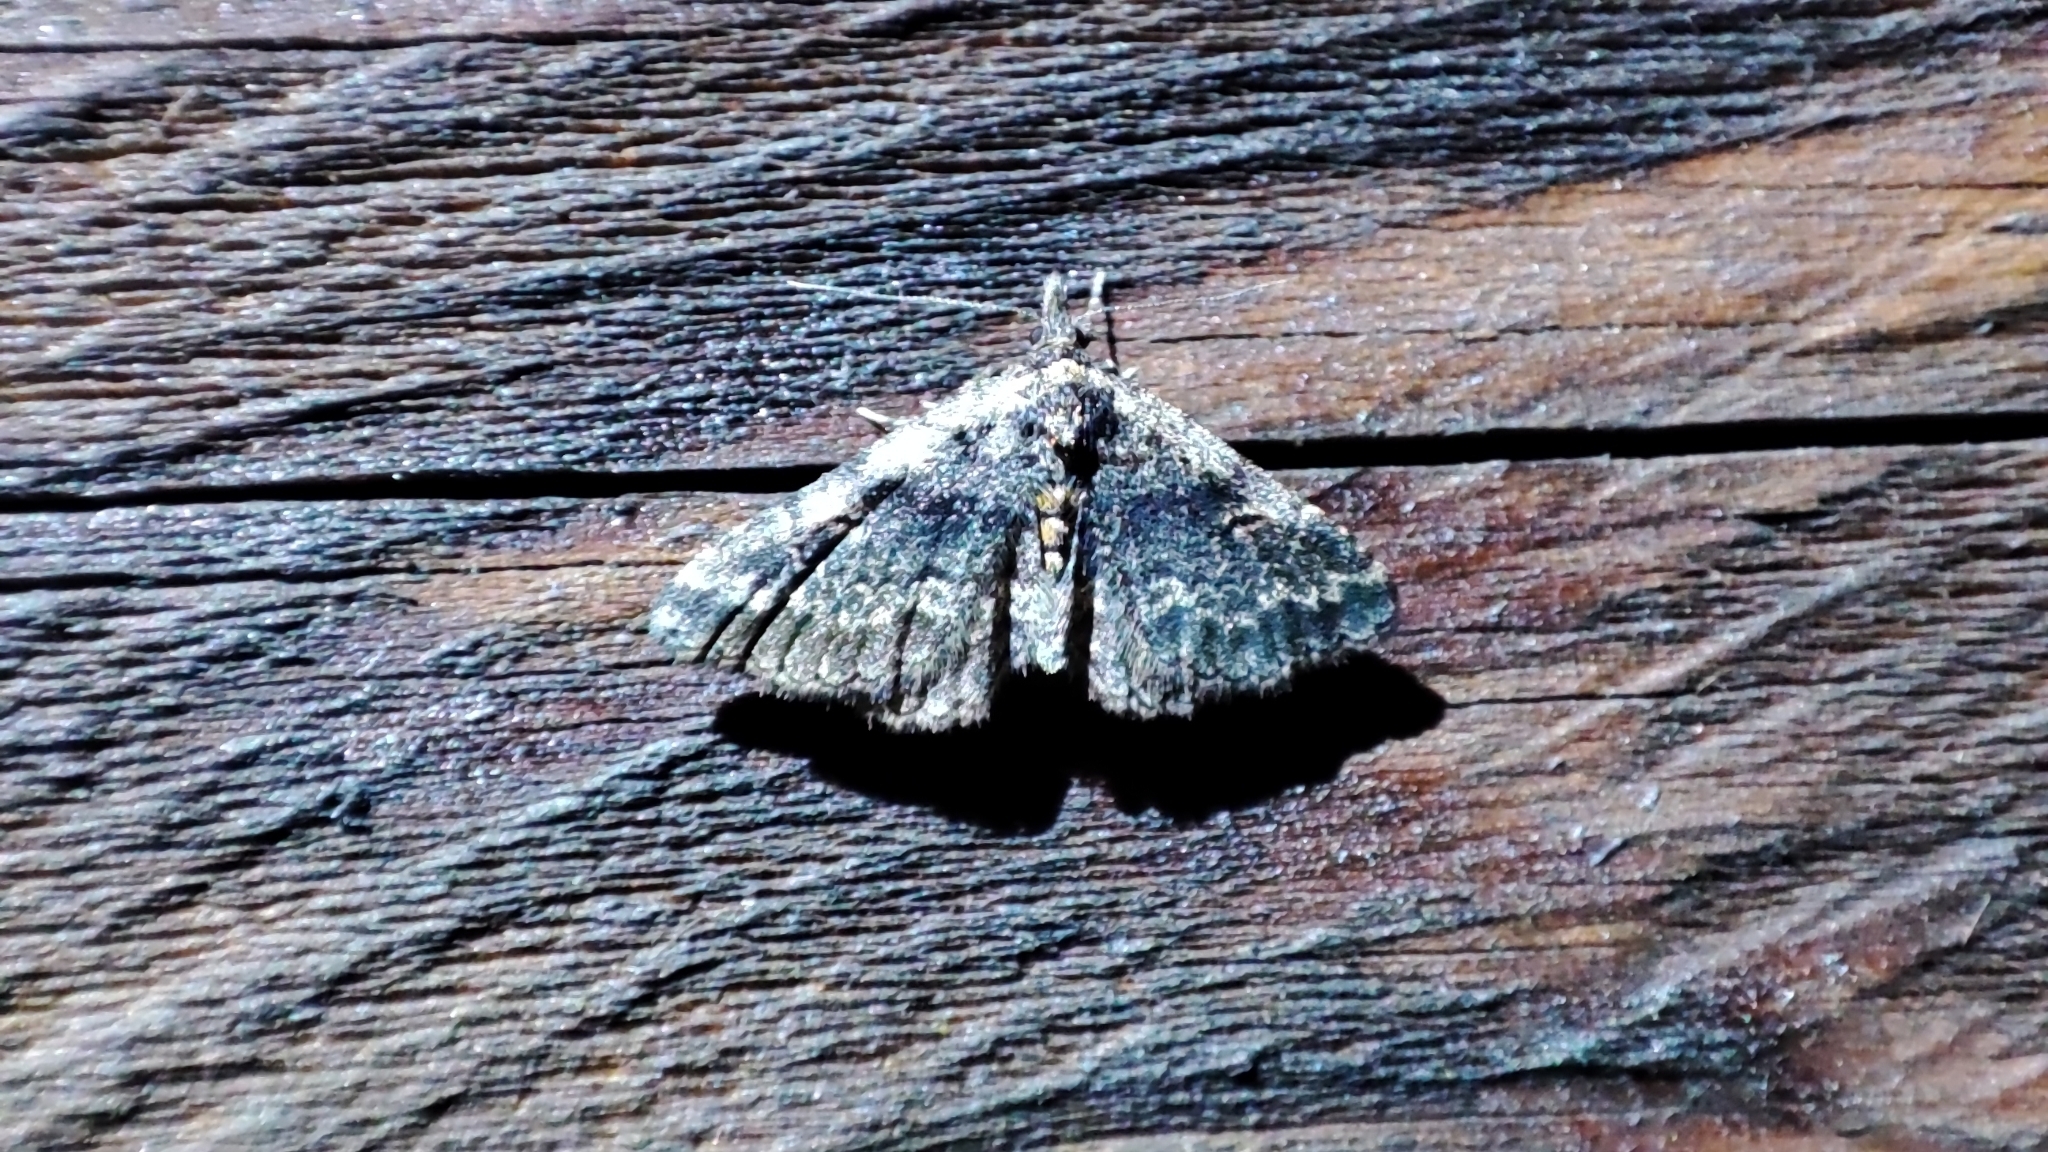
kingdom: Animalia
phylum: Arthropoda
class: Insecta
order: Lepidoptera
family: Erebidae
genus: Parascotia
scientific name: Parascotia cognata
